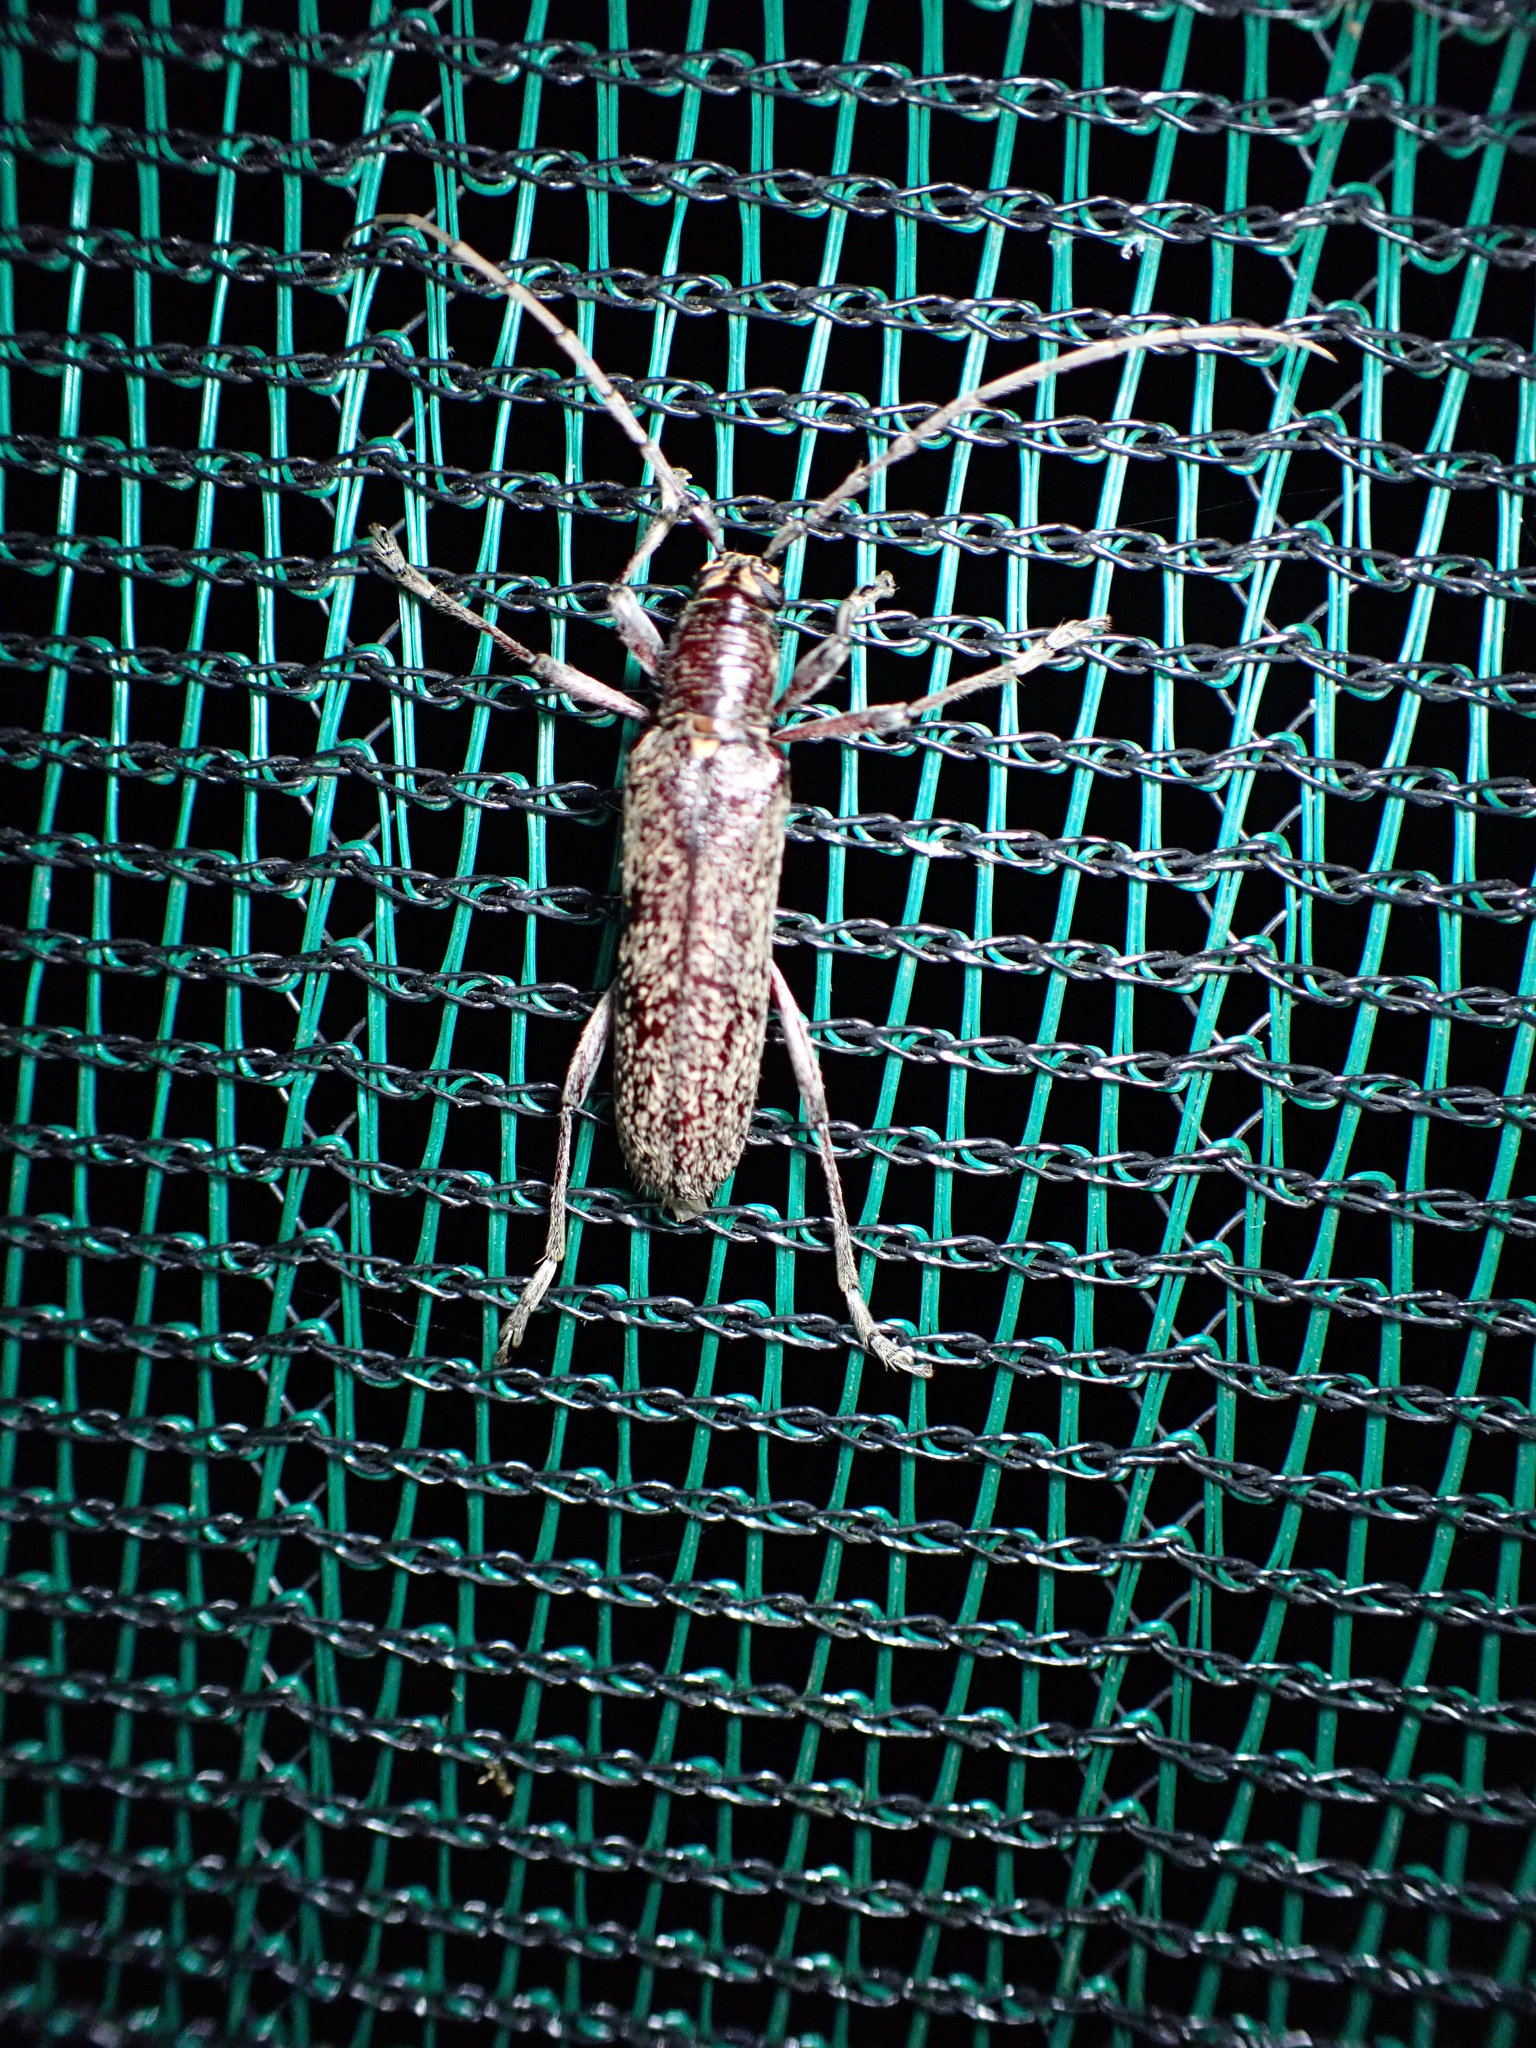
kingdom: Animalia
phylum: Arthropoda
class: Insecta
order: Coleoptera
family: Cerambycidae
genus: Oemona
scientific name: Oemona hirta
